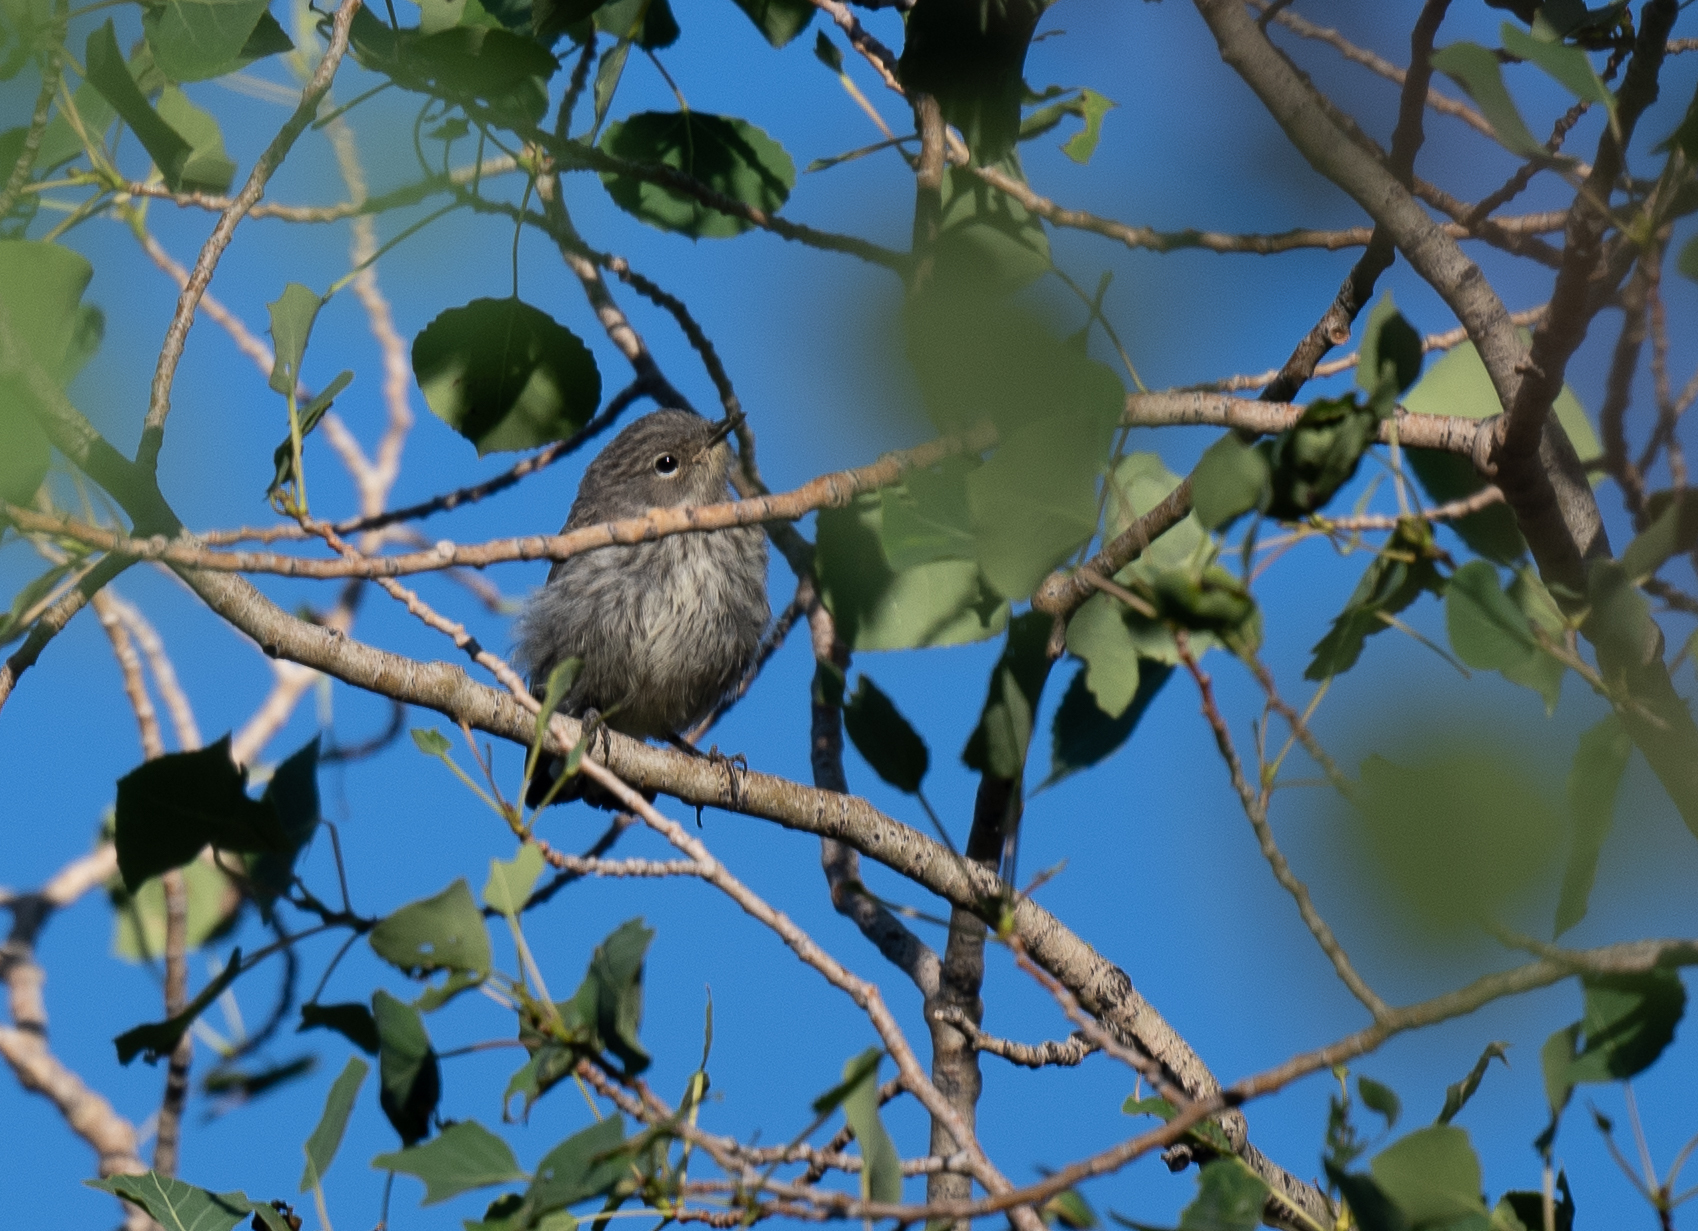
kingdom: Animalia
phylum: Chordata
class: Aves
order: Passeriformes
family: Parulidae
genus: Setophaga
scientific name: Setophaga coronata
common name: Myrtle warbler
